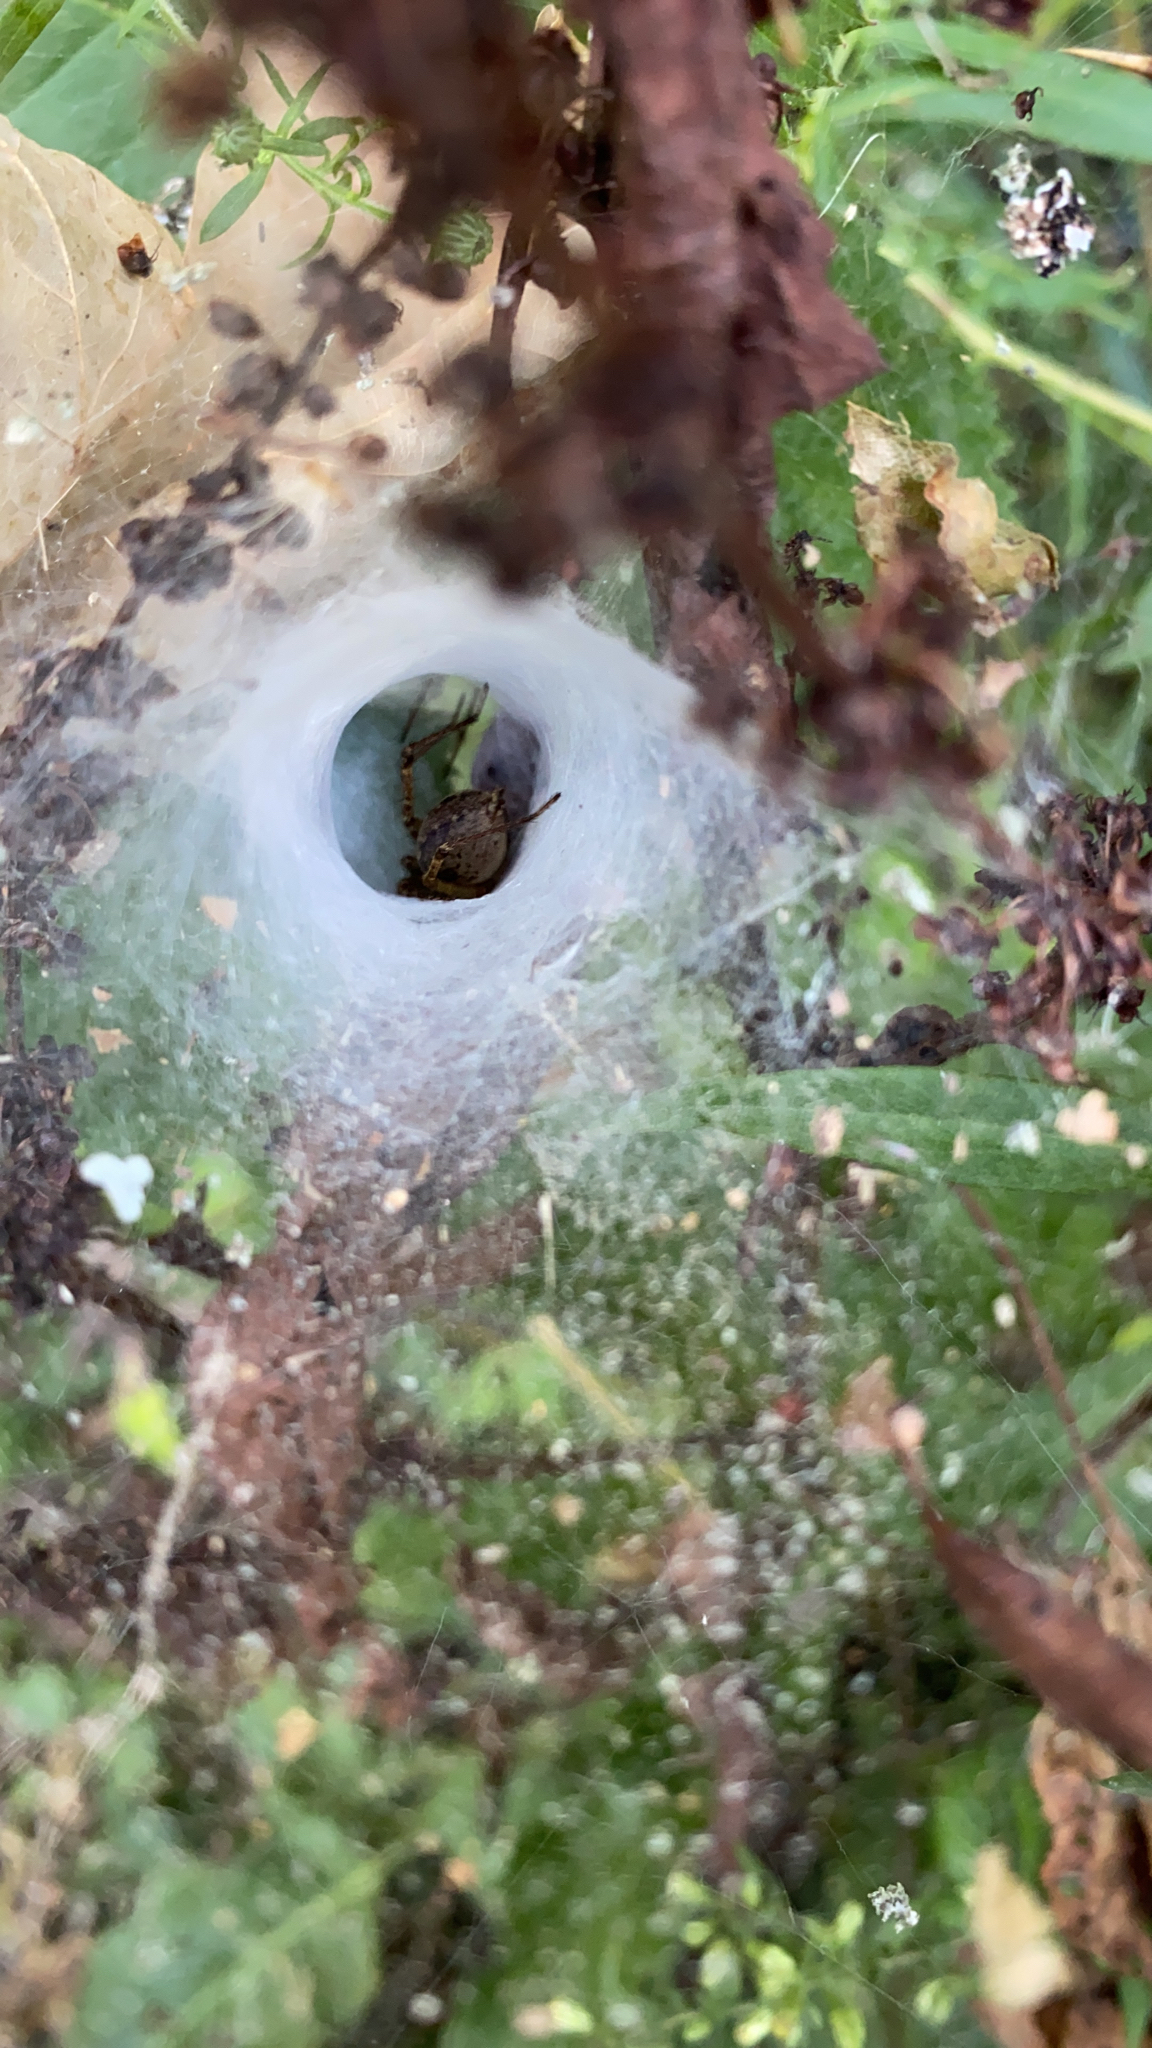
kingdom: Animalia
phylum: Arthropoda
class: Arachnida
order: Araneae
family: Agelenidae
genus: Agelenopsis
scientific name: Agelenopsis
